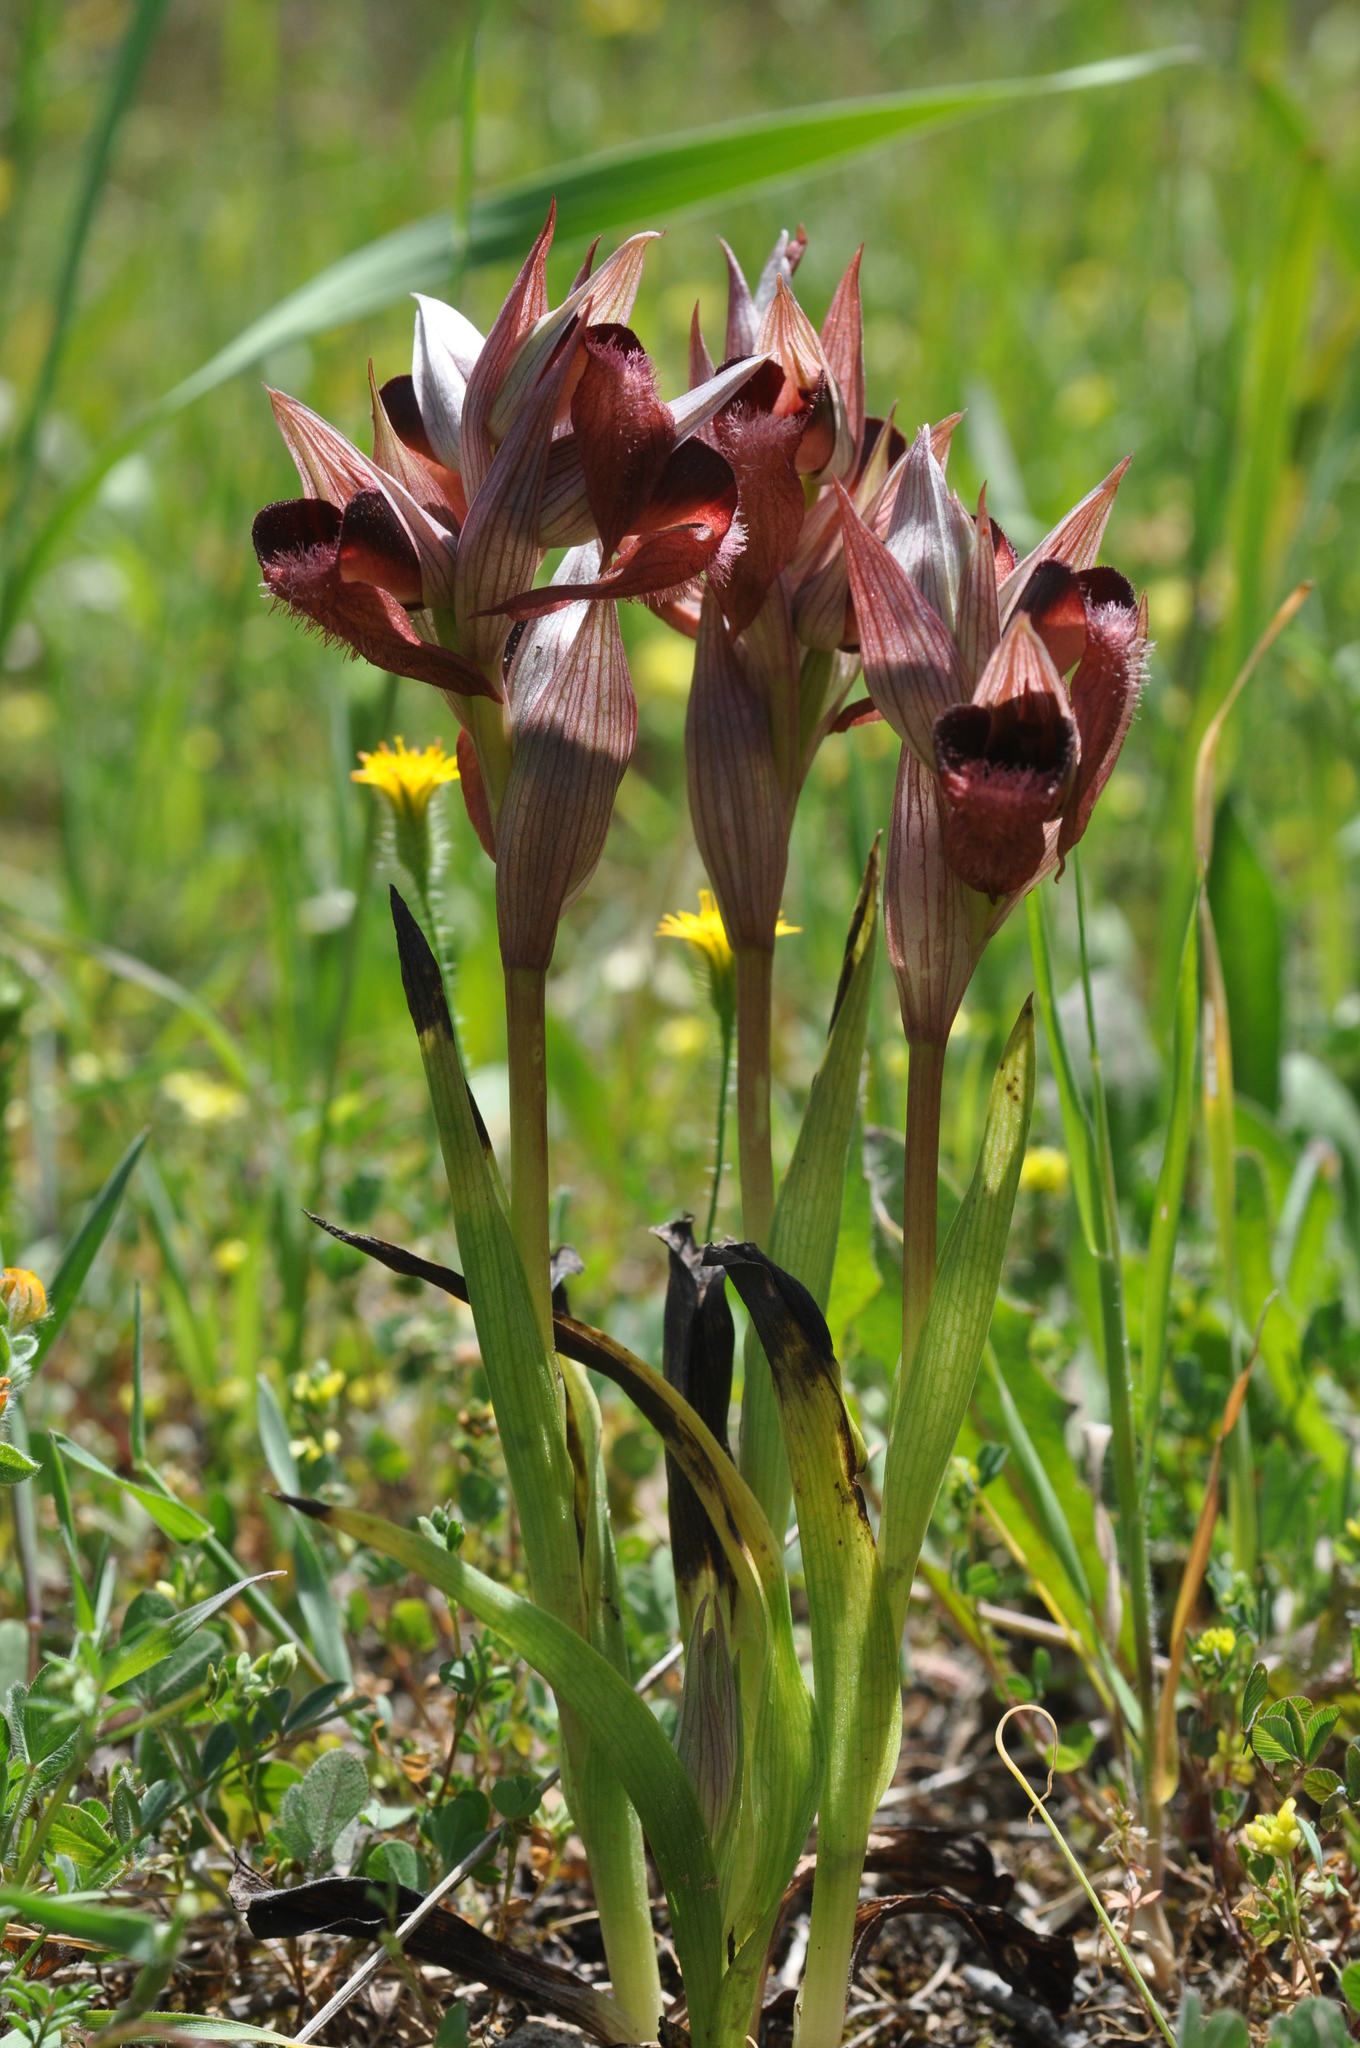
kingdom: Plantae
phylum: Tracheophyta
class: Liliopsida
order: Asparagales
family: Orchidaceae
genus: Serapias
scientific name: Serapias orientalis
